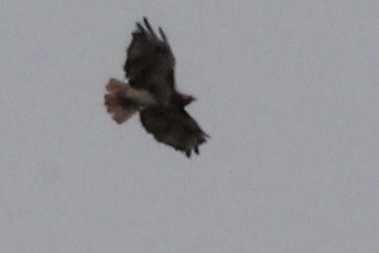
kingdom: Animalia
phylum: Chordata
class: Aves
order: Accipitriformes
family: Accipitridae
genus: Buteo
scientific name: Buteo jamaicensis
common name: Red-tailed hawk
